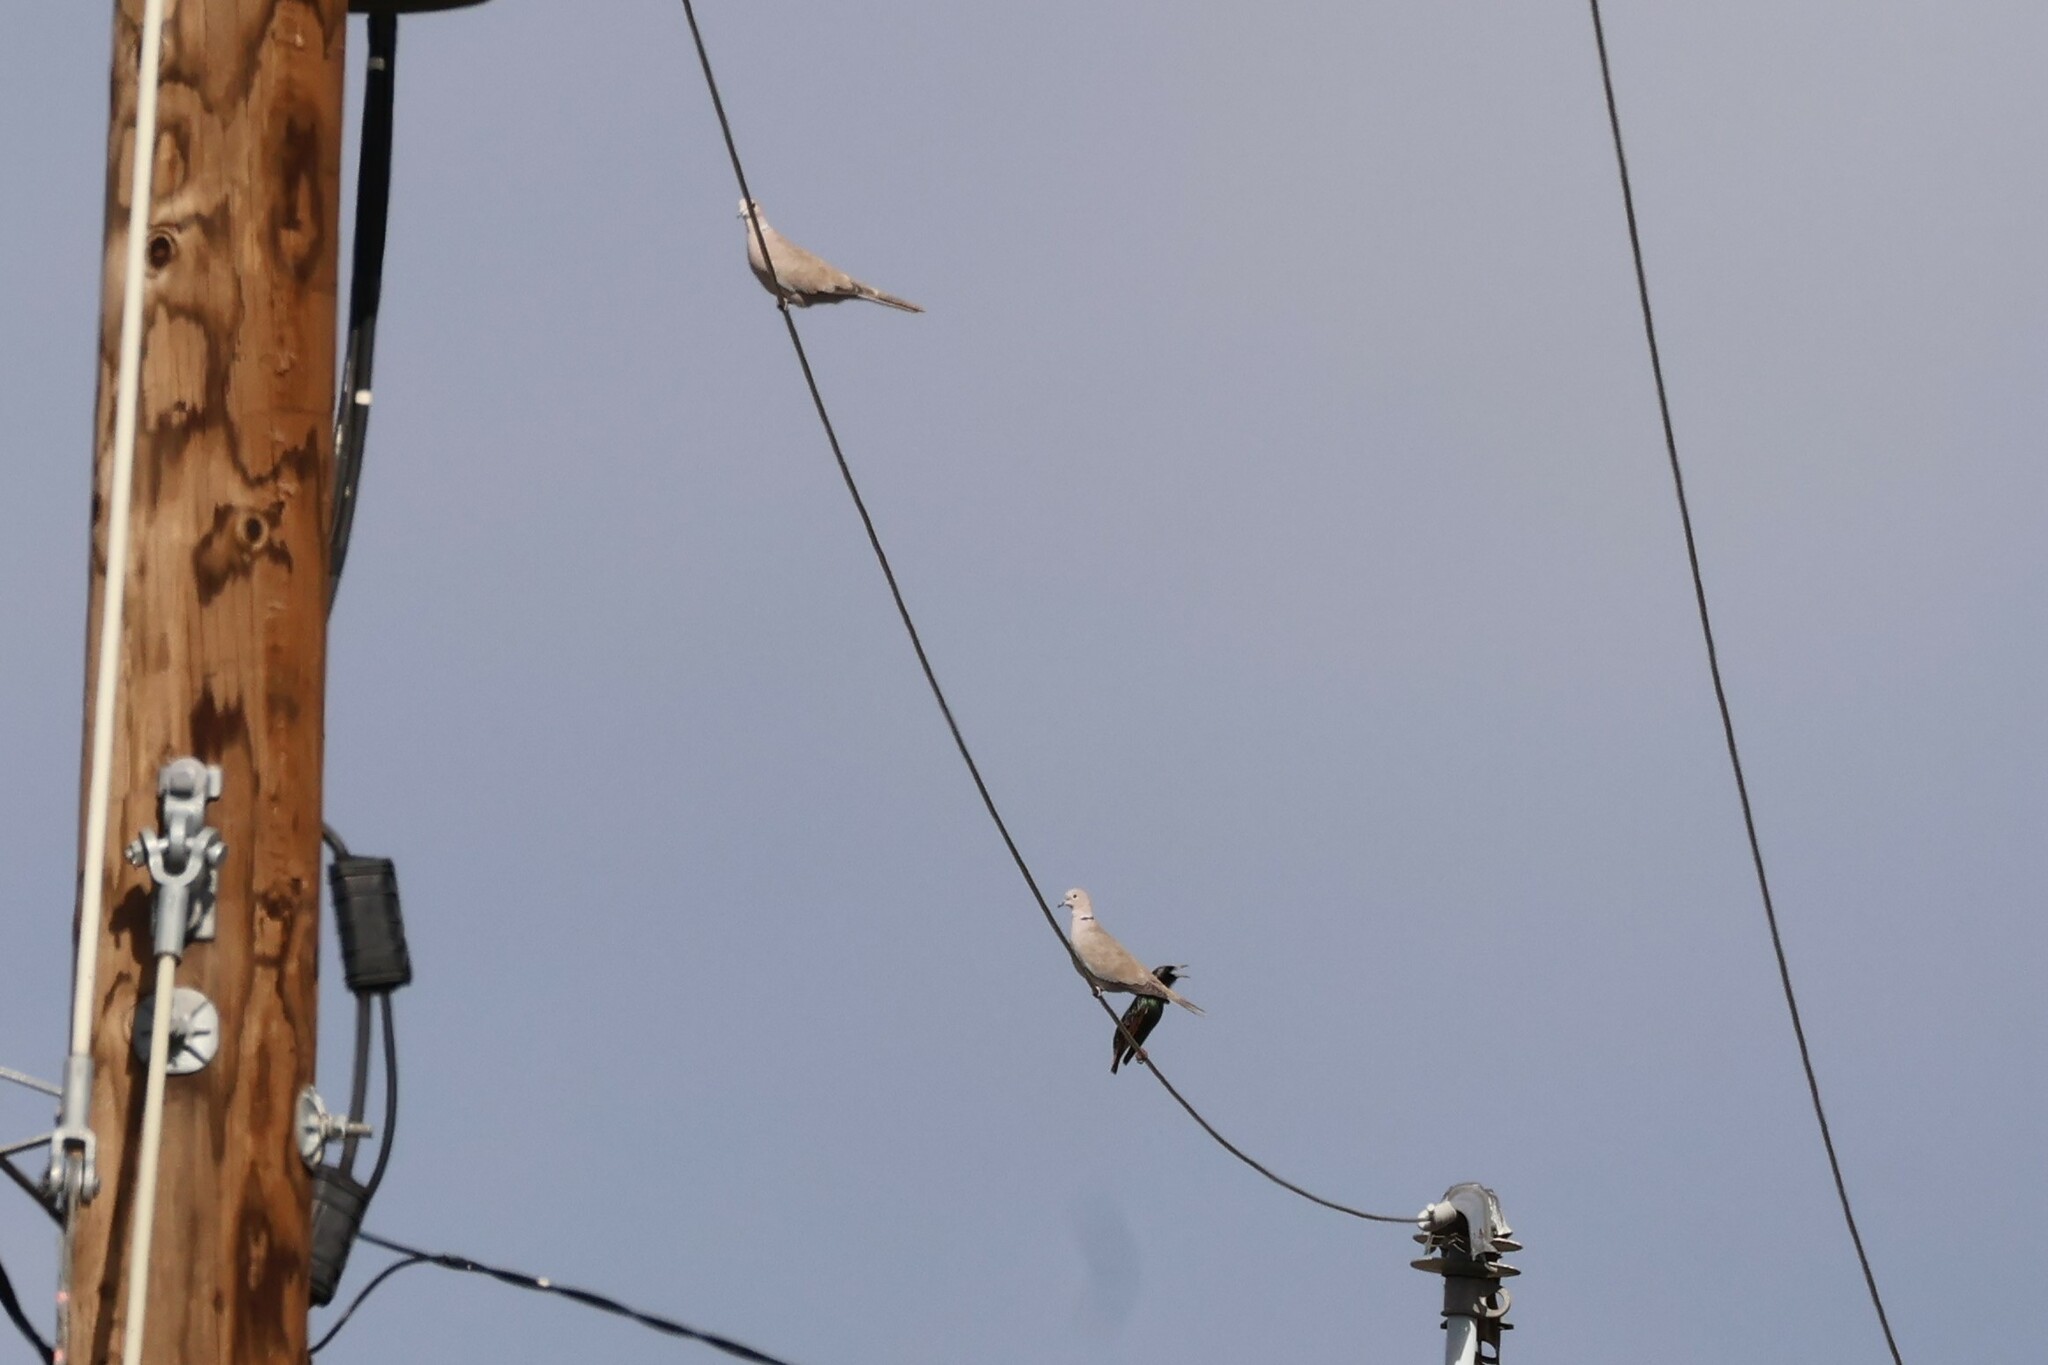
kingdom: Animalia
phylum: Chordata
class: Aves
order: Columbiformes
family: Columbidae
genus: Streptopelia
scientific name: Streptopelia decaocto
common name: Eurasian collared dove
